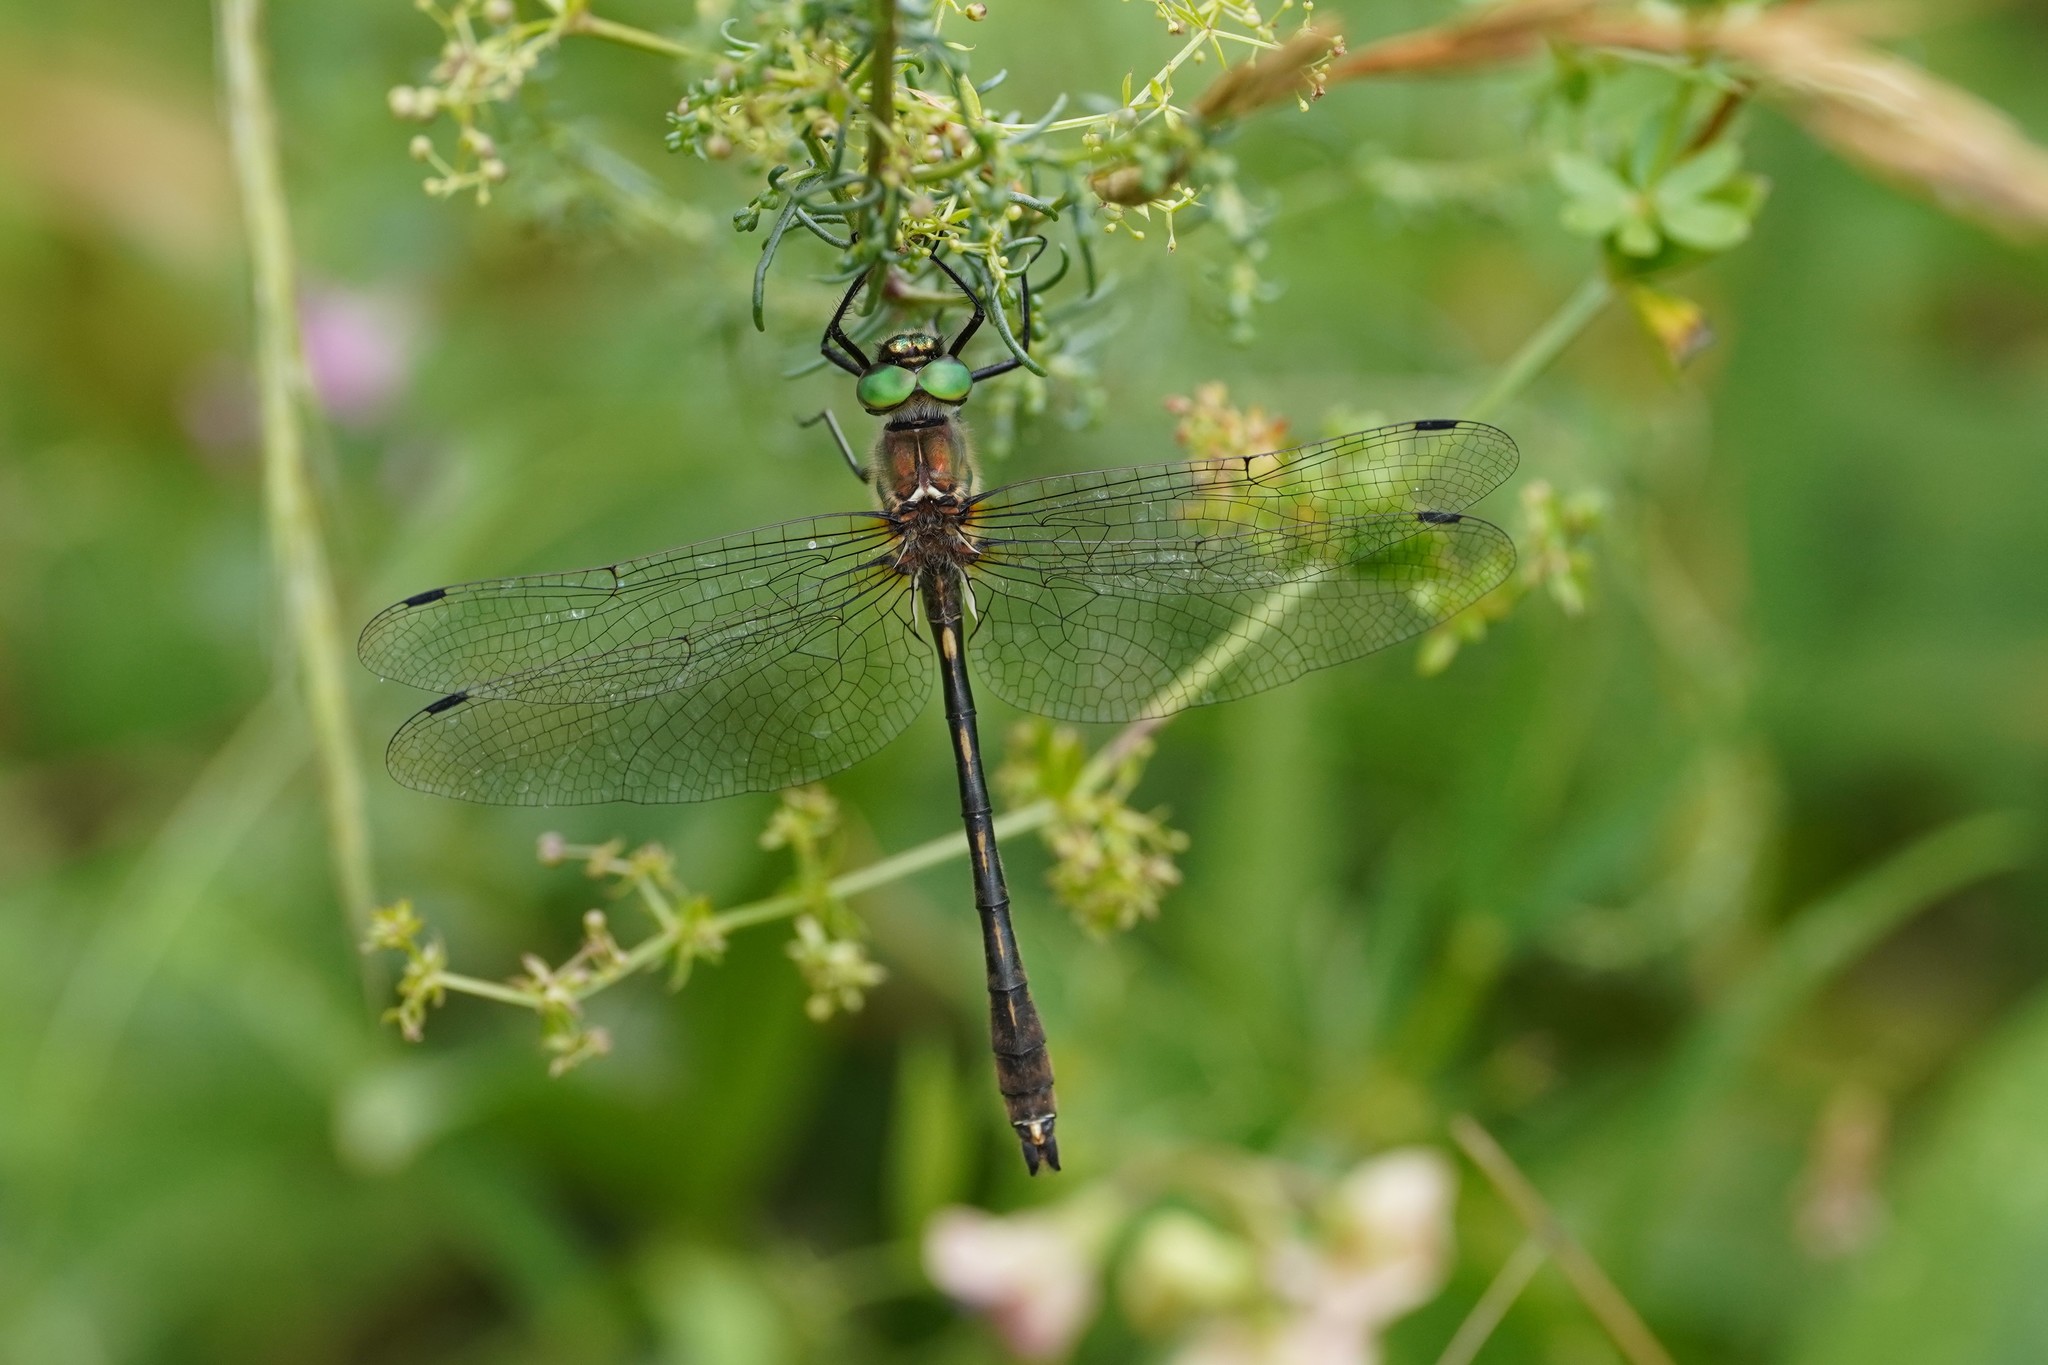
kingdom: Animalia
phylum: Arthropoda
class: Insecta
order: Odonata
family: Corduliidae
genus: Oxygastra
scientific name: Oxygastra curtisii
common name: Orange-spotted emerald
